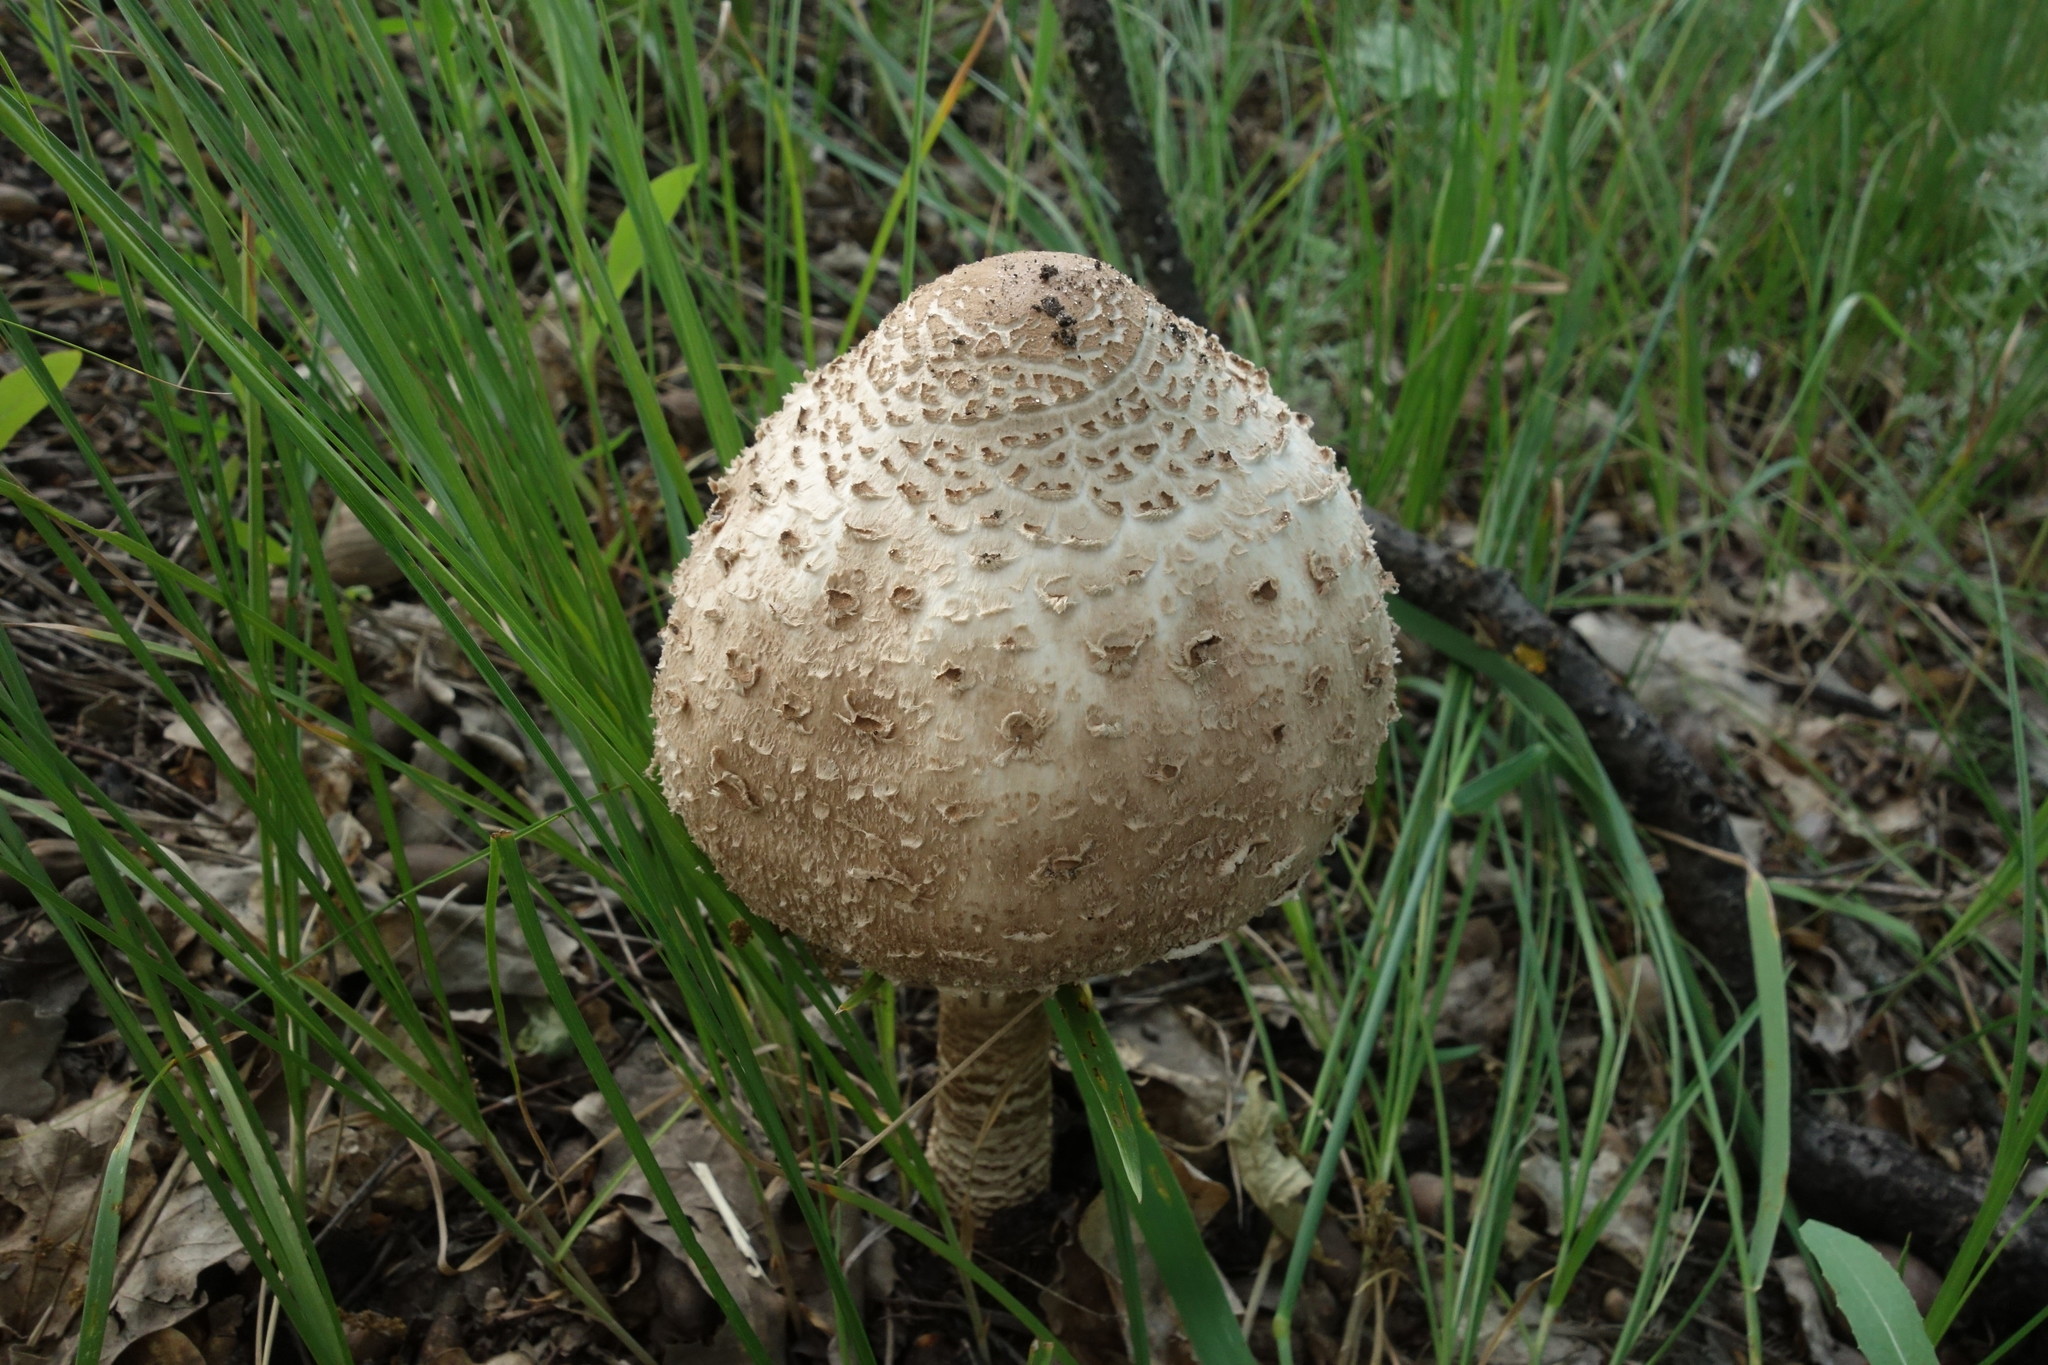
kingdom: Fungi
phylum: Basidiomycota
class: Agaricomycetes
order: Agaricales
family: Agaricaceae
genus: Macrolepiota
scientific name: Macrolepiota procera
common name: Parasol
